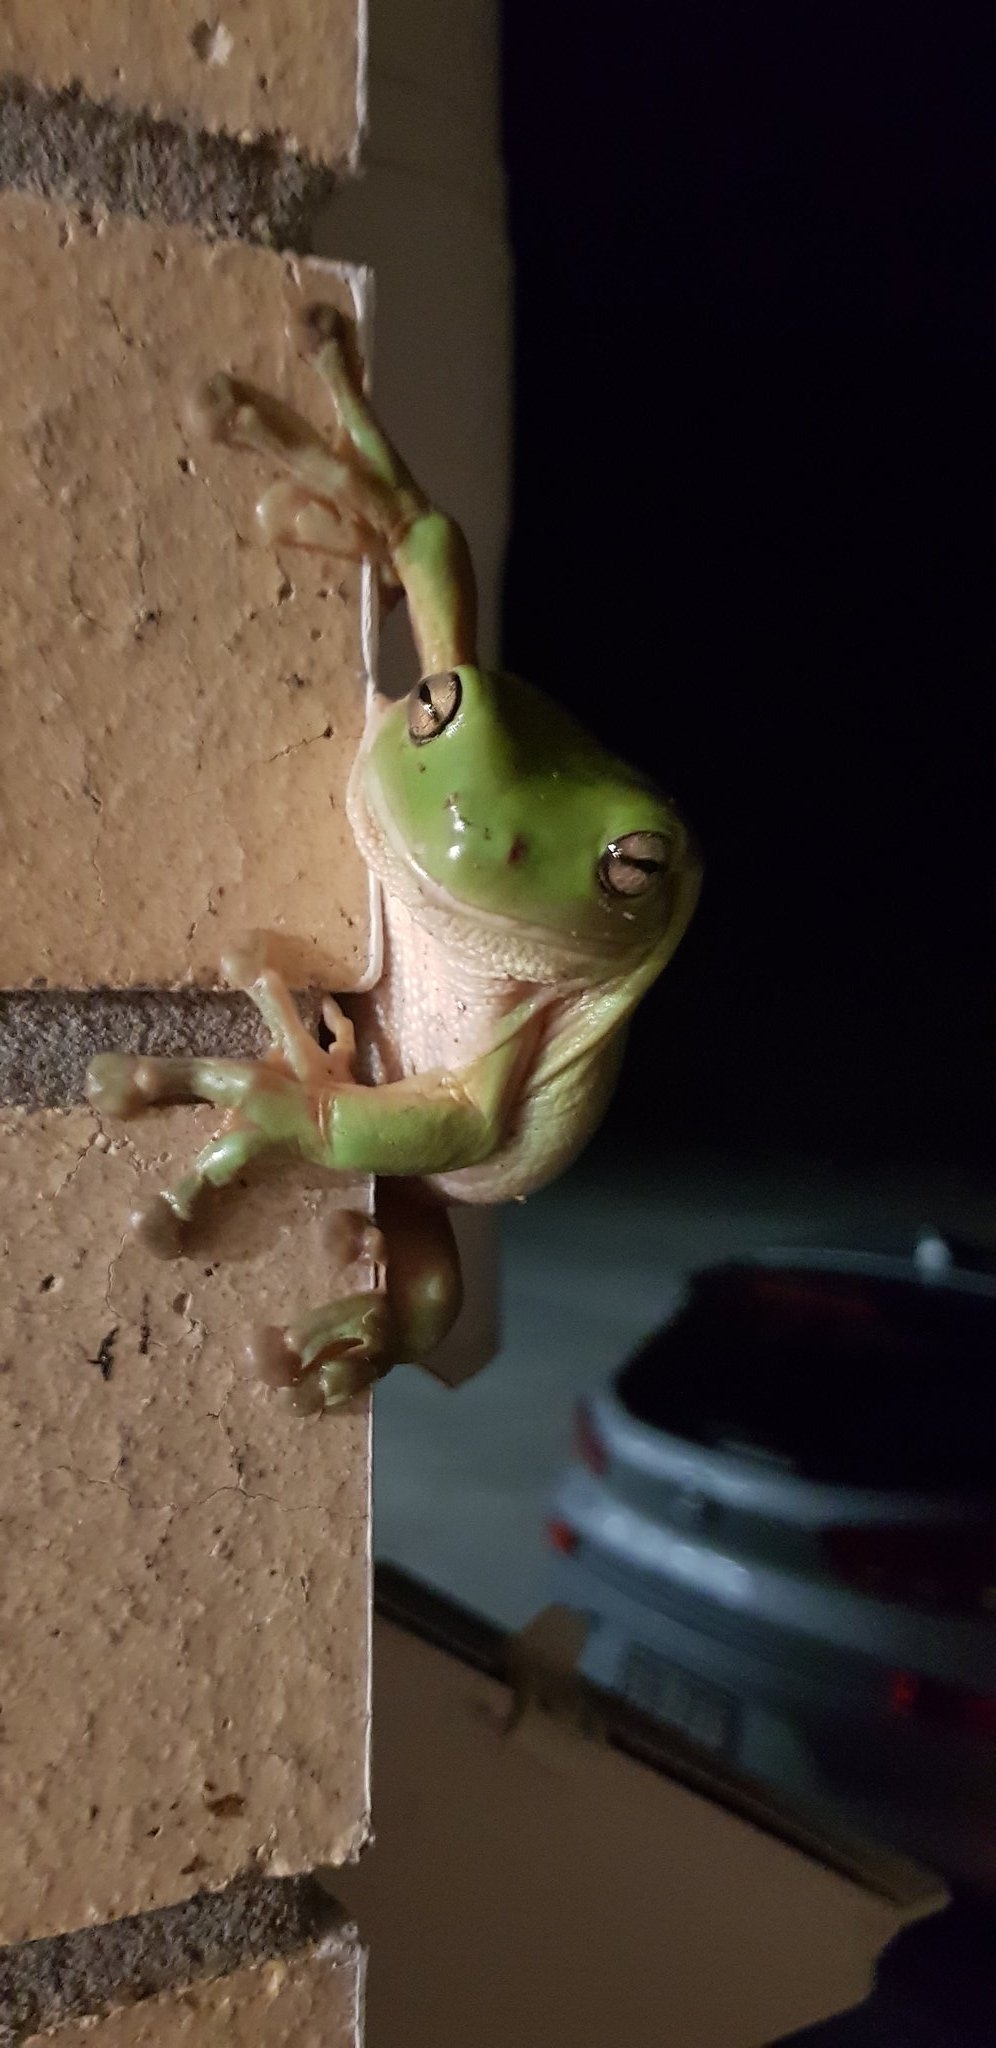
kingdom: Animalia
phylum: Chordata
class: Amphibia
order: Anura
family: Pelodryadidae
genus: Ranoidea
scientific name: Ranoidea caerulea
